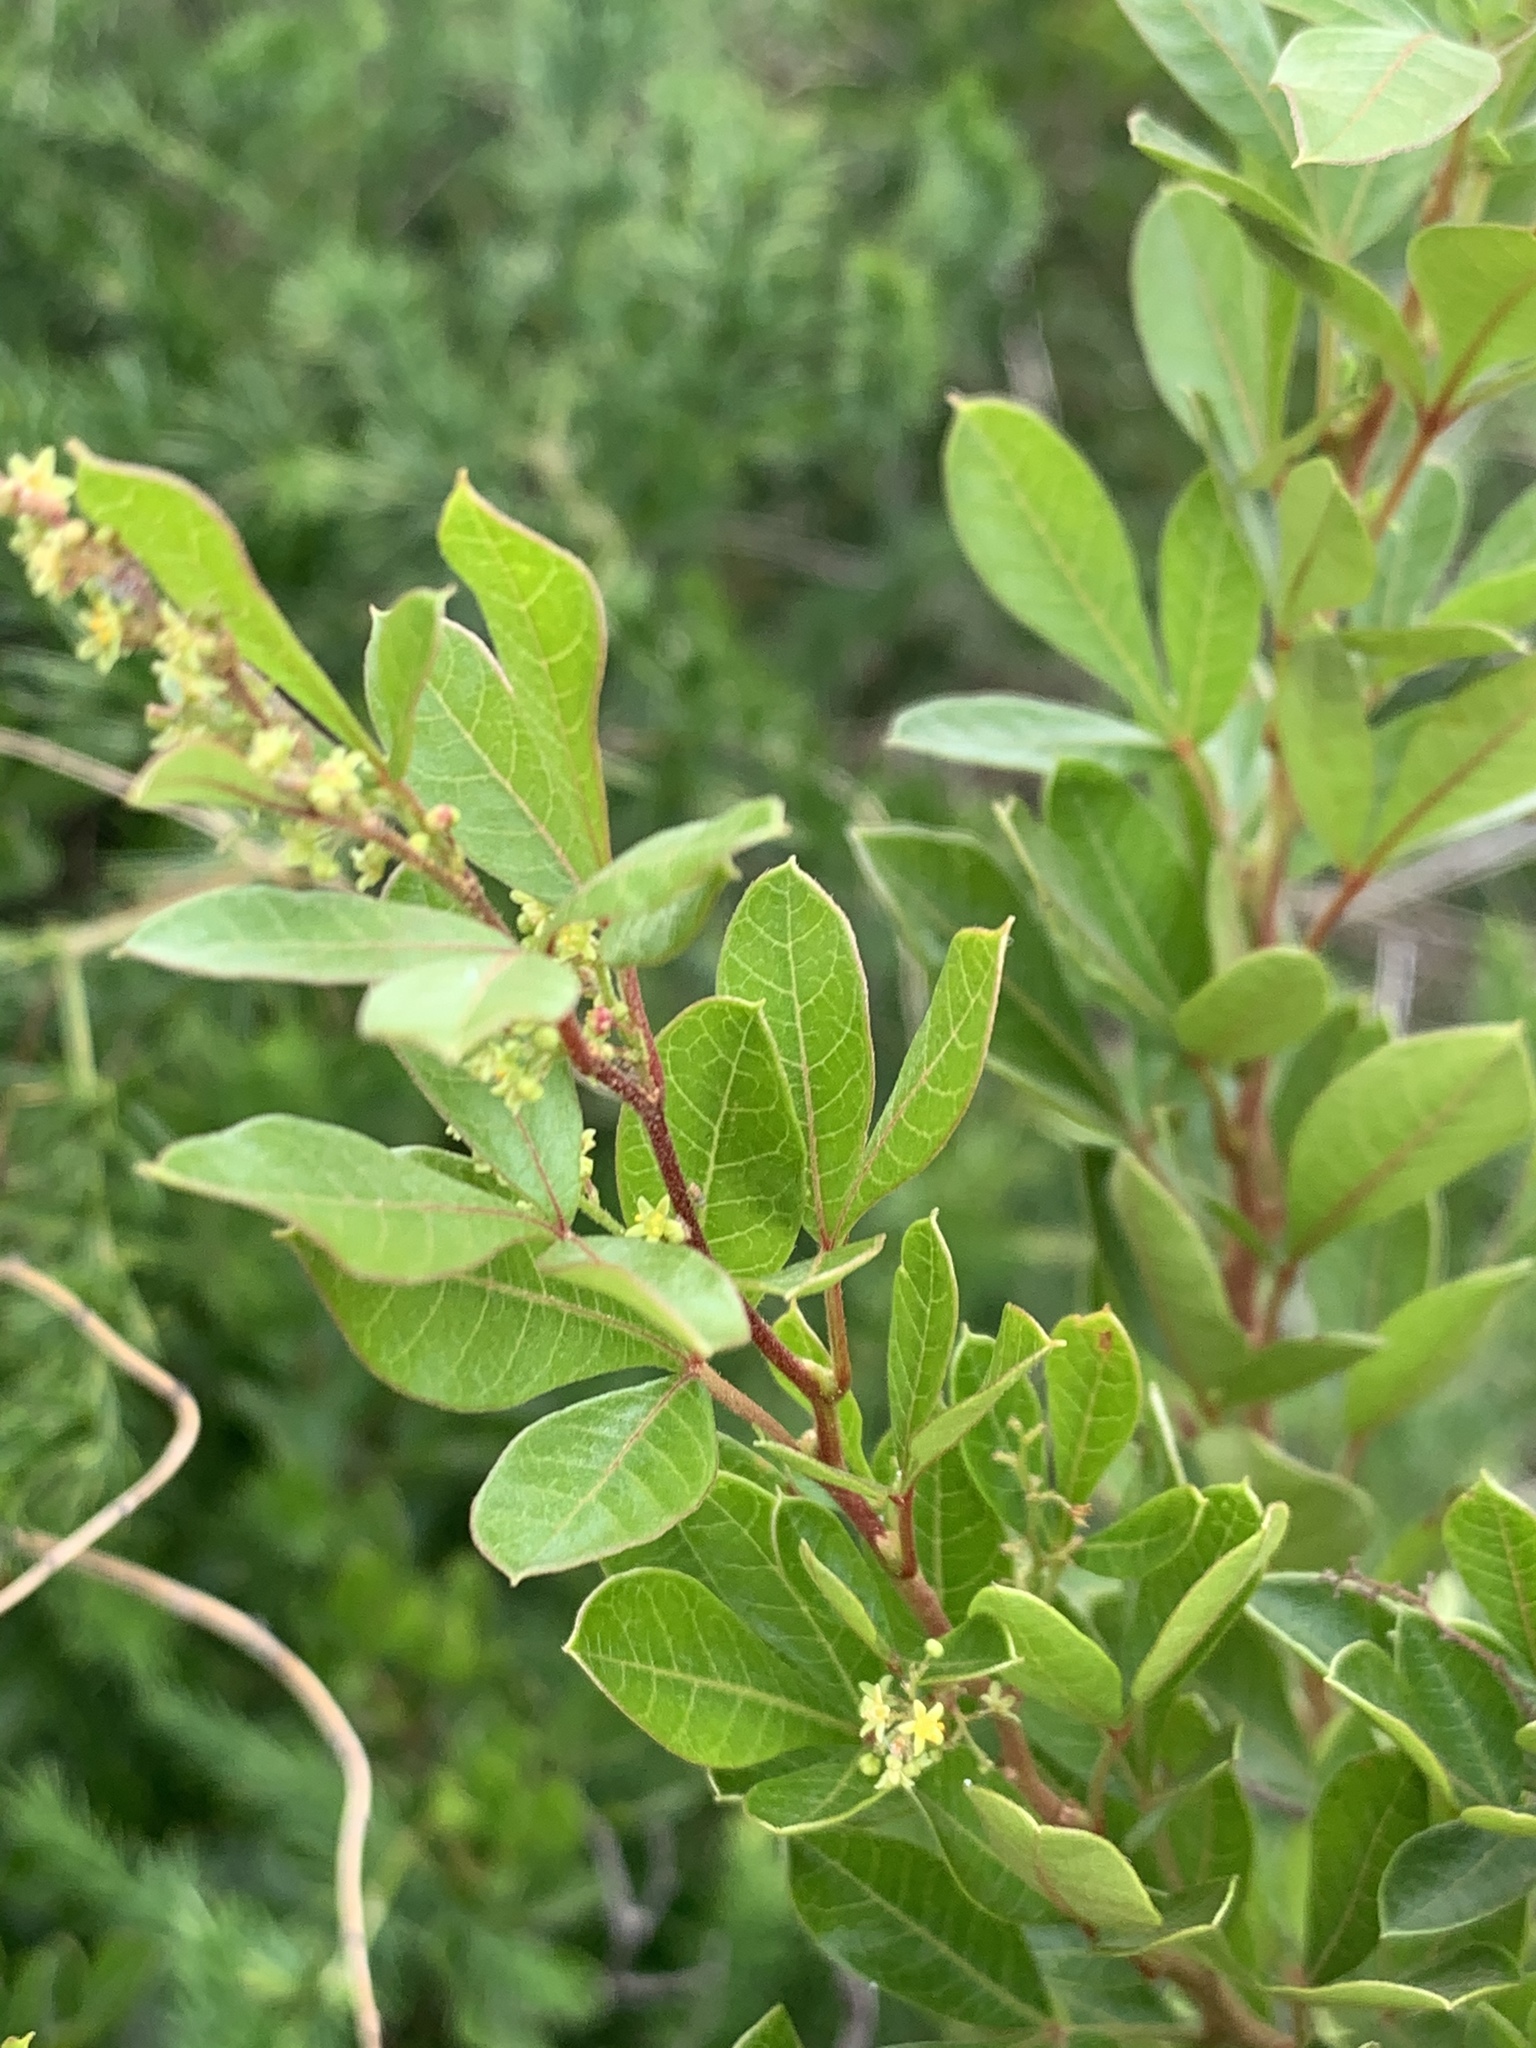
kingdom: Plantae
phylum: Tracheophyta
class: Magnoliopsida
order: Sapindales
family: Anacardiaceae
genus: Searsia
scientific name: Searsia pyroides
